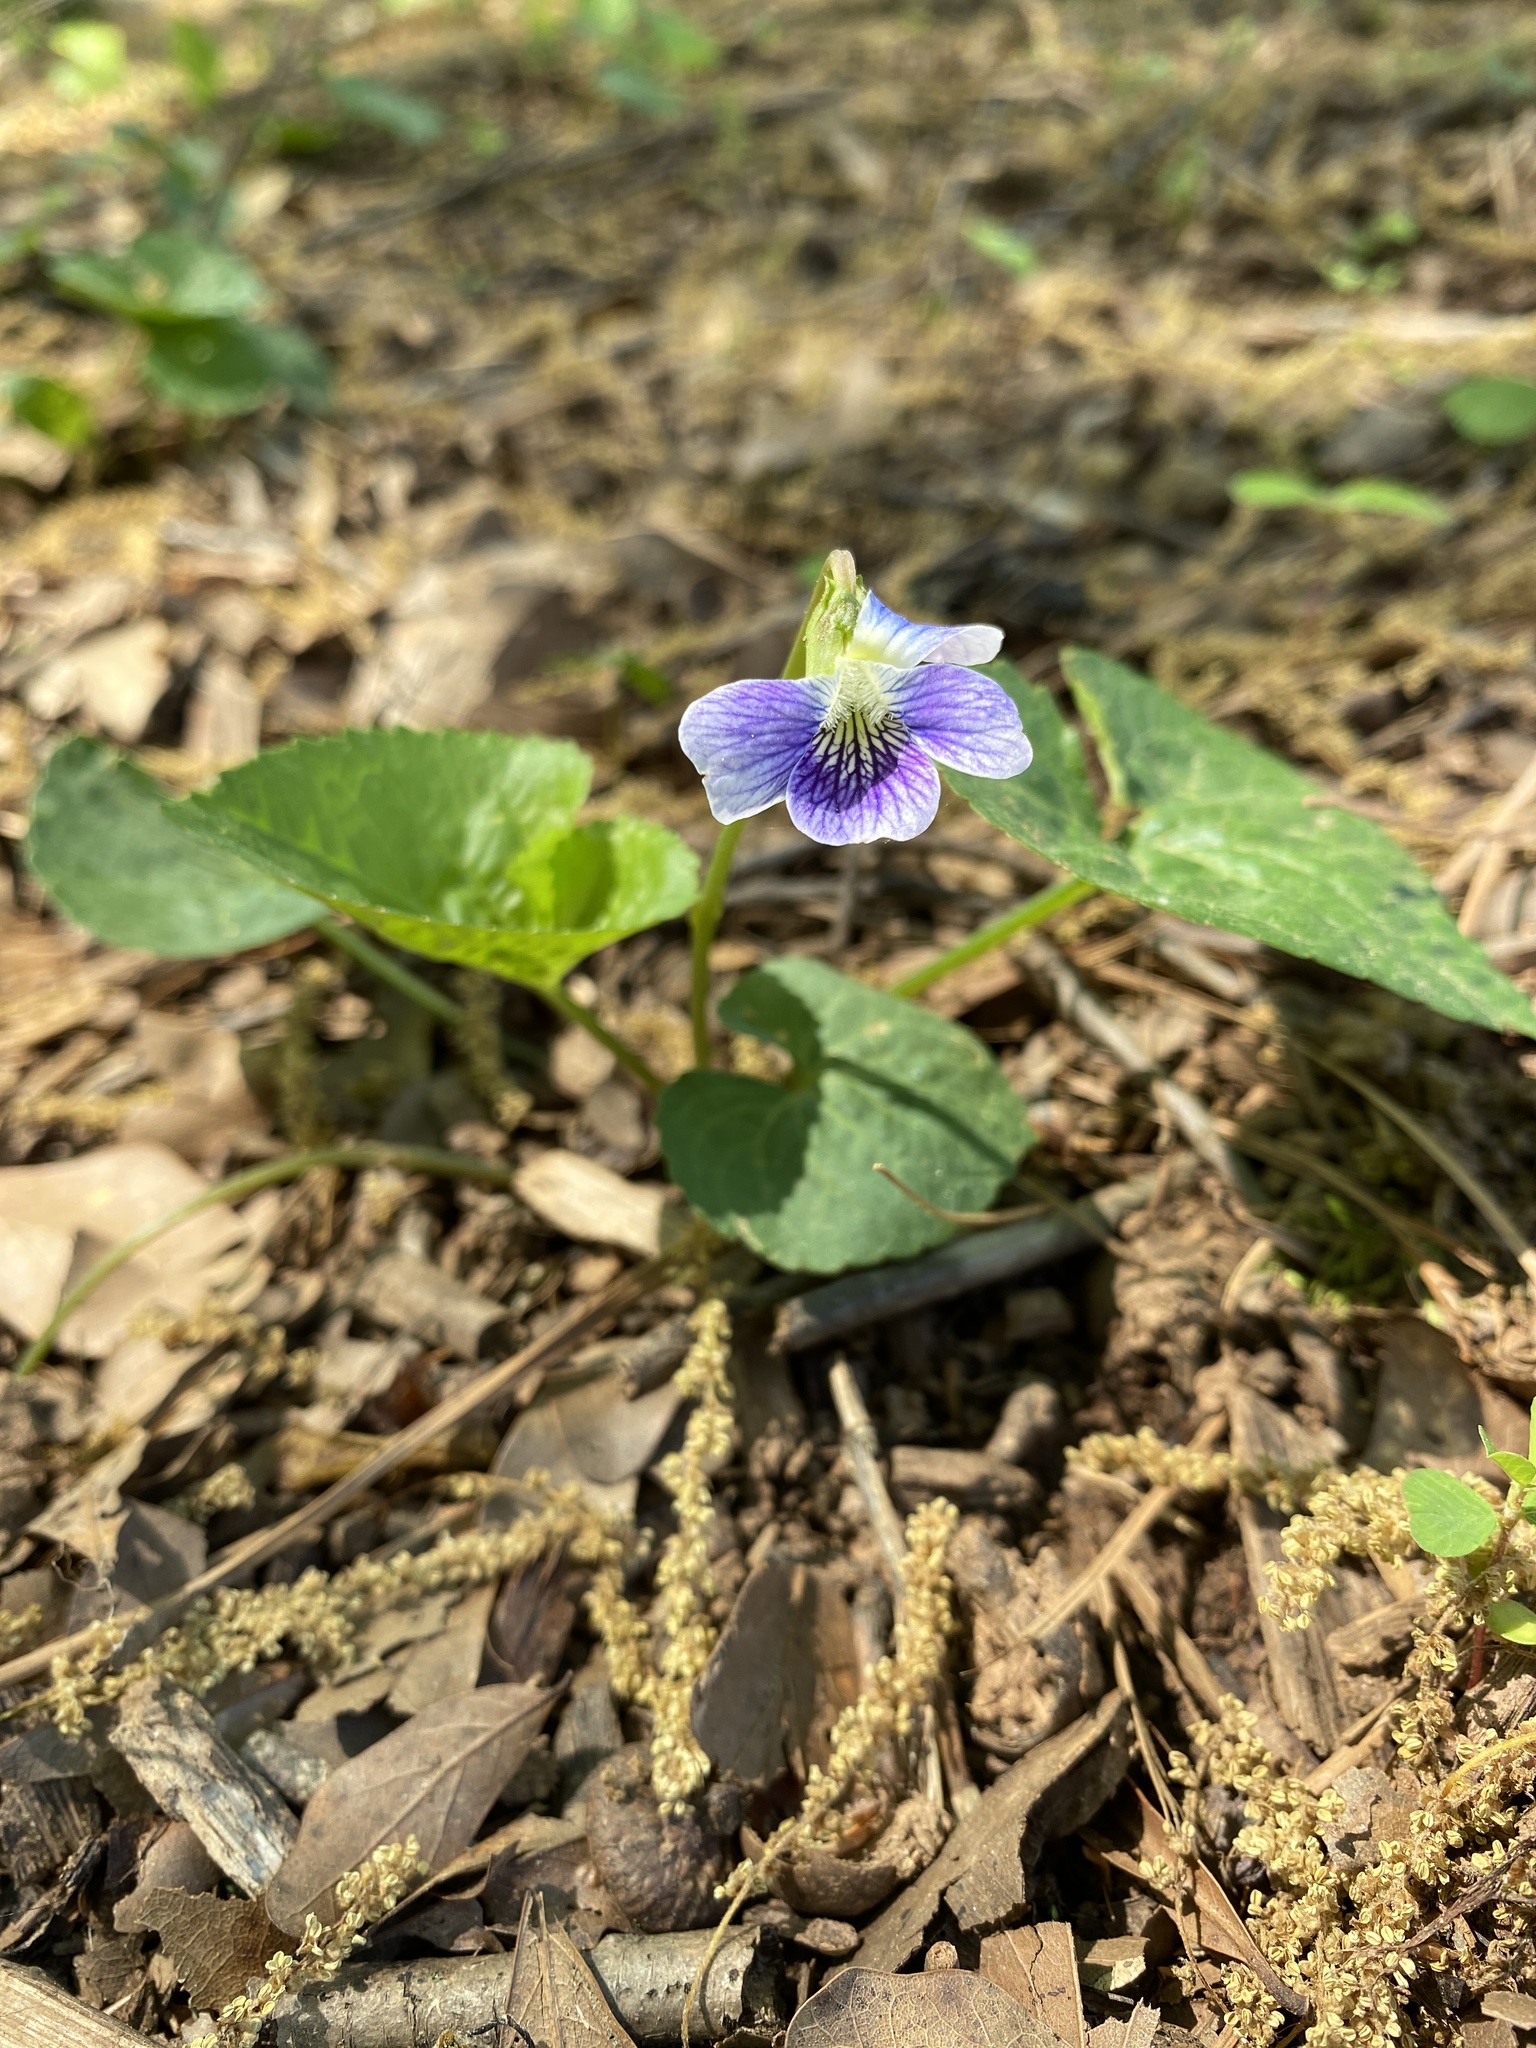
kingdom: Plantae
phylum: Tracheophyta
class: Magnoliopsida
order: Malpighiales
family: Violaceae
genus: Viola
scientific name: Viola sororia
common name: Dooryard violet
